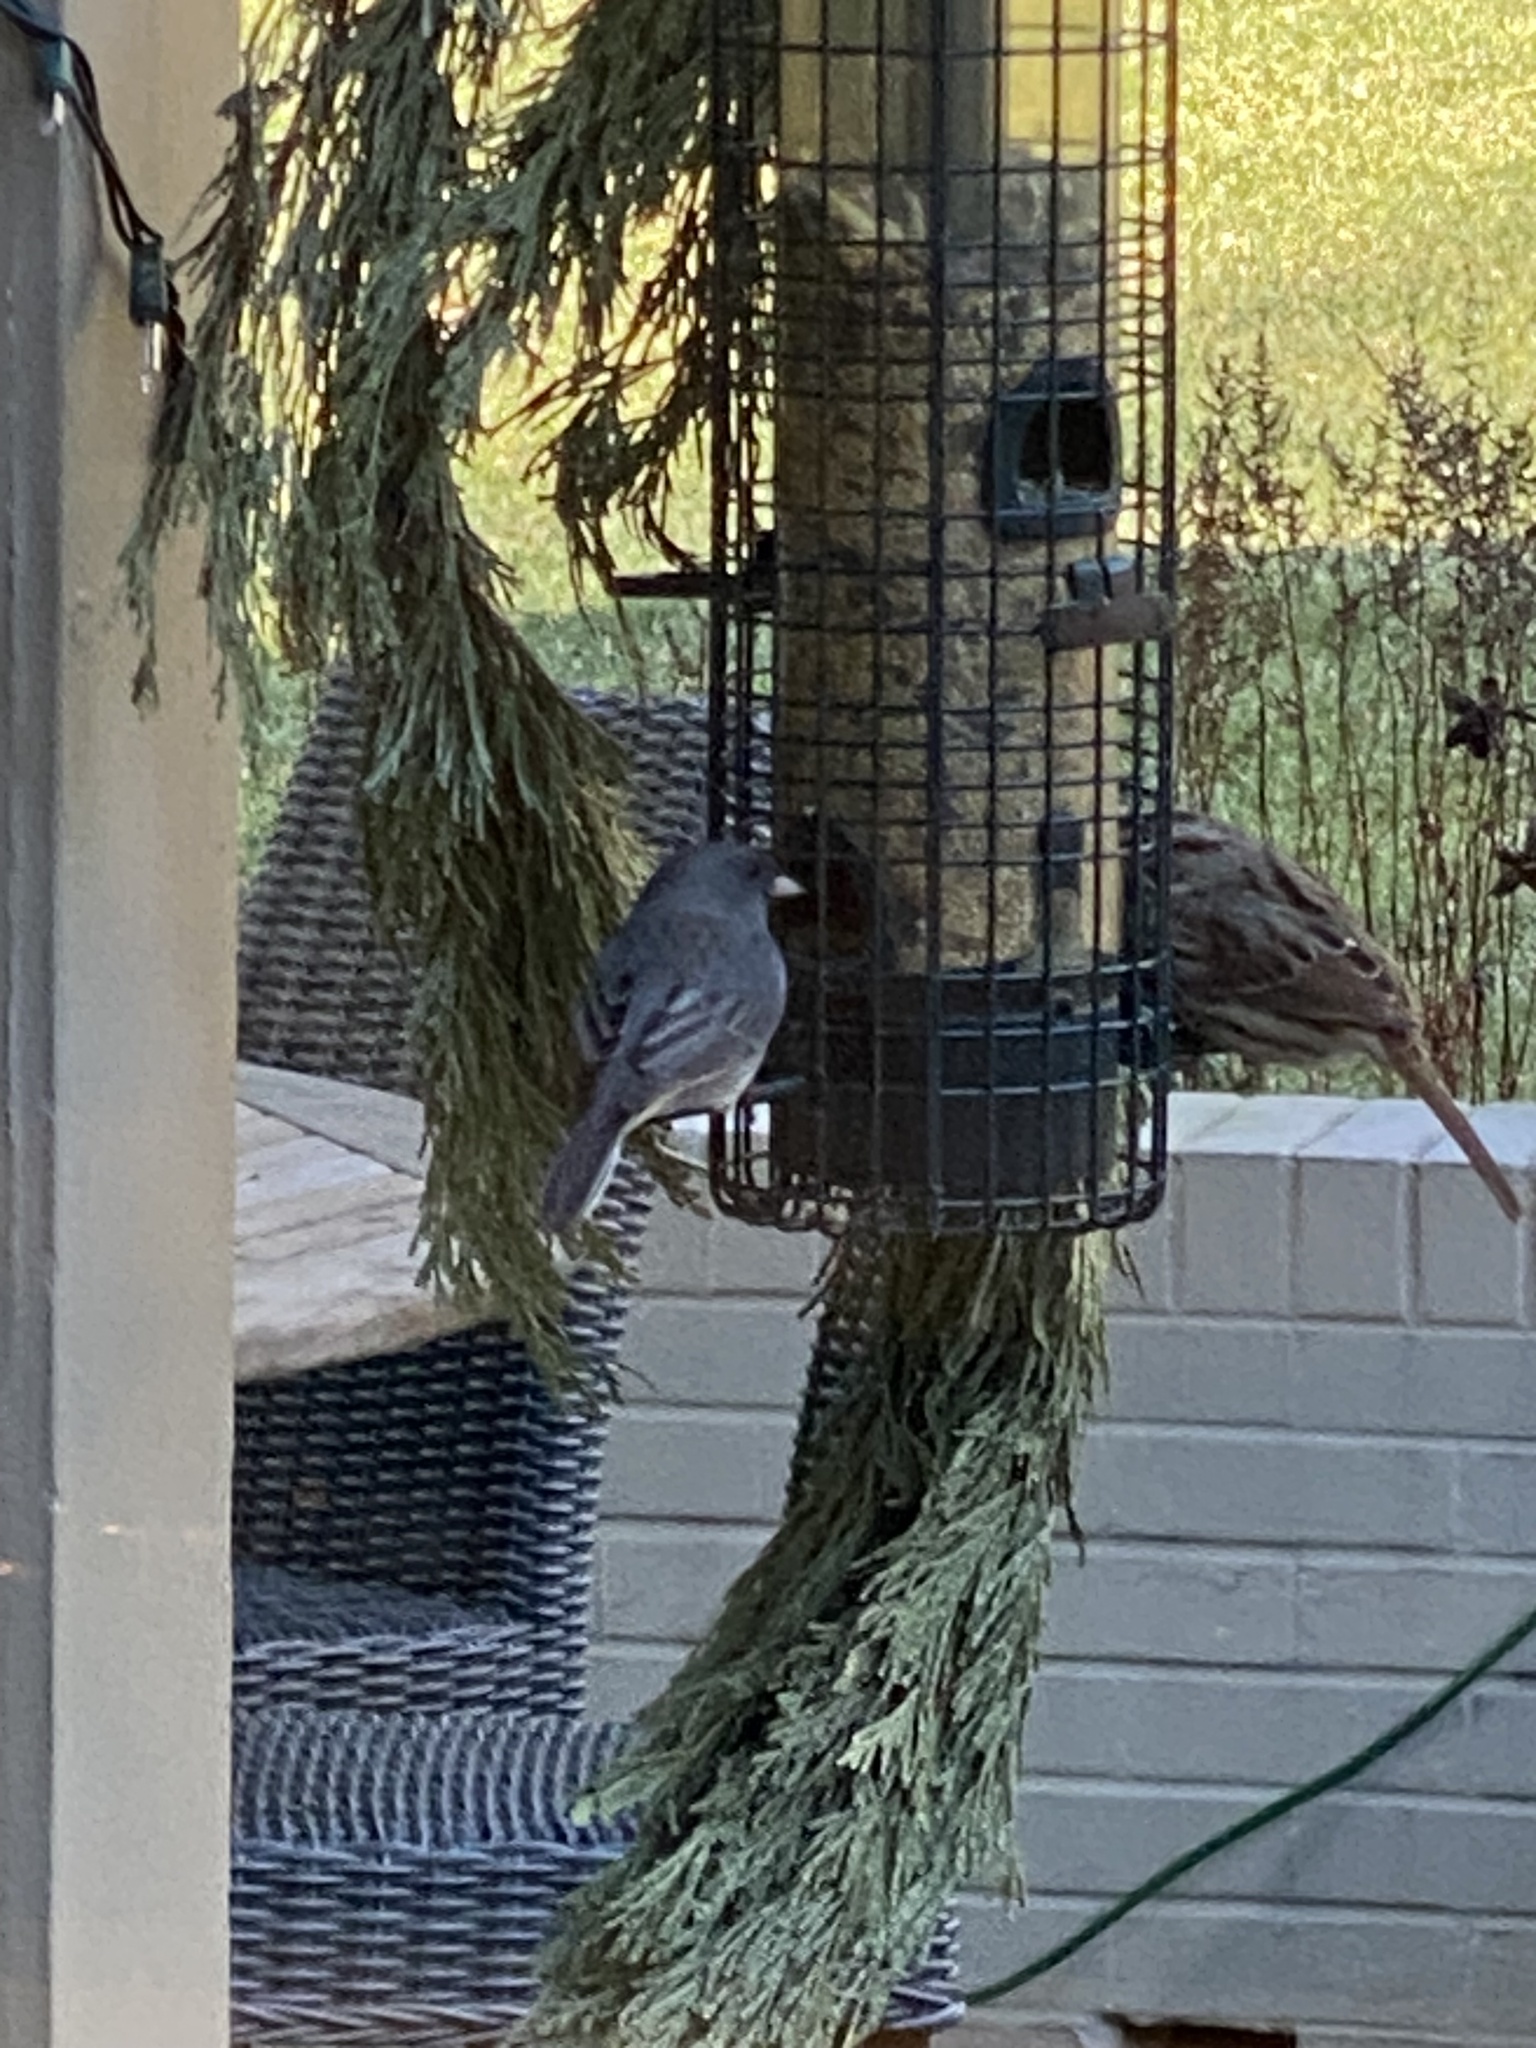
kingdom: Animalia
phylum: Chordata
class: Aves
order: Passeriformes
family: Passerellidae
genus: Junco
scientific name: Junco hyemalis
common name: Dark-eyed junco
